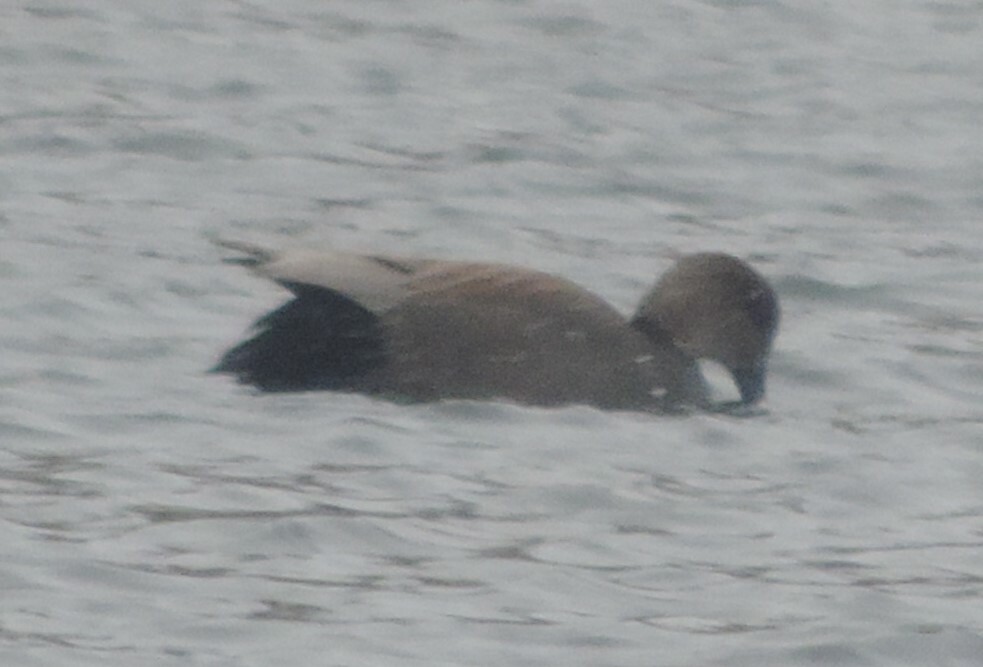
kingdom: Animalia
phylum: Chordata
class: Aves
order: Anseriformes
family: Anatidae
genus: Mareca
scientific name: Mareca strepera
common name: Gadwall
